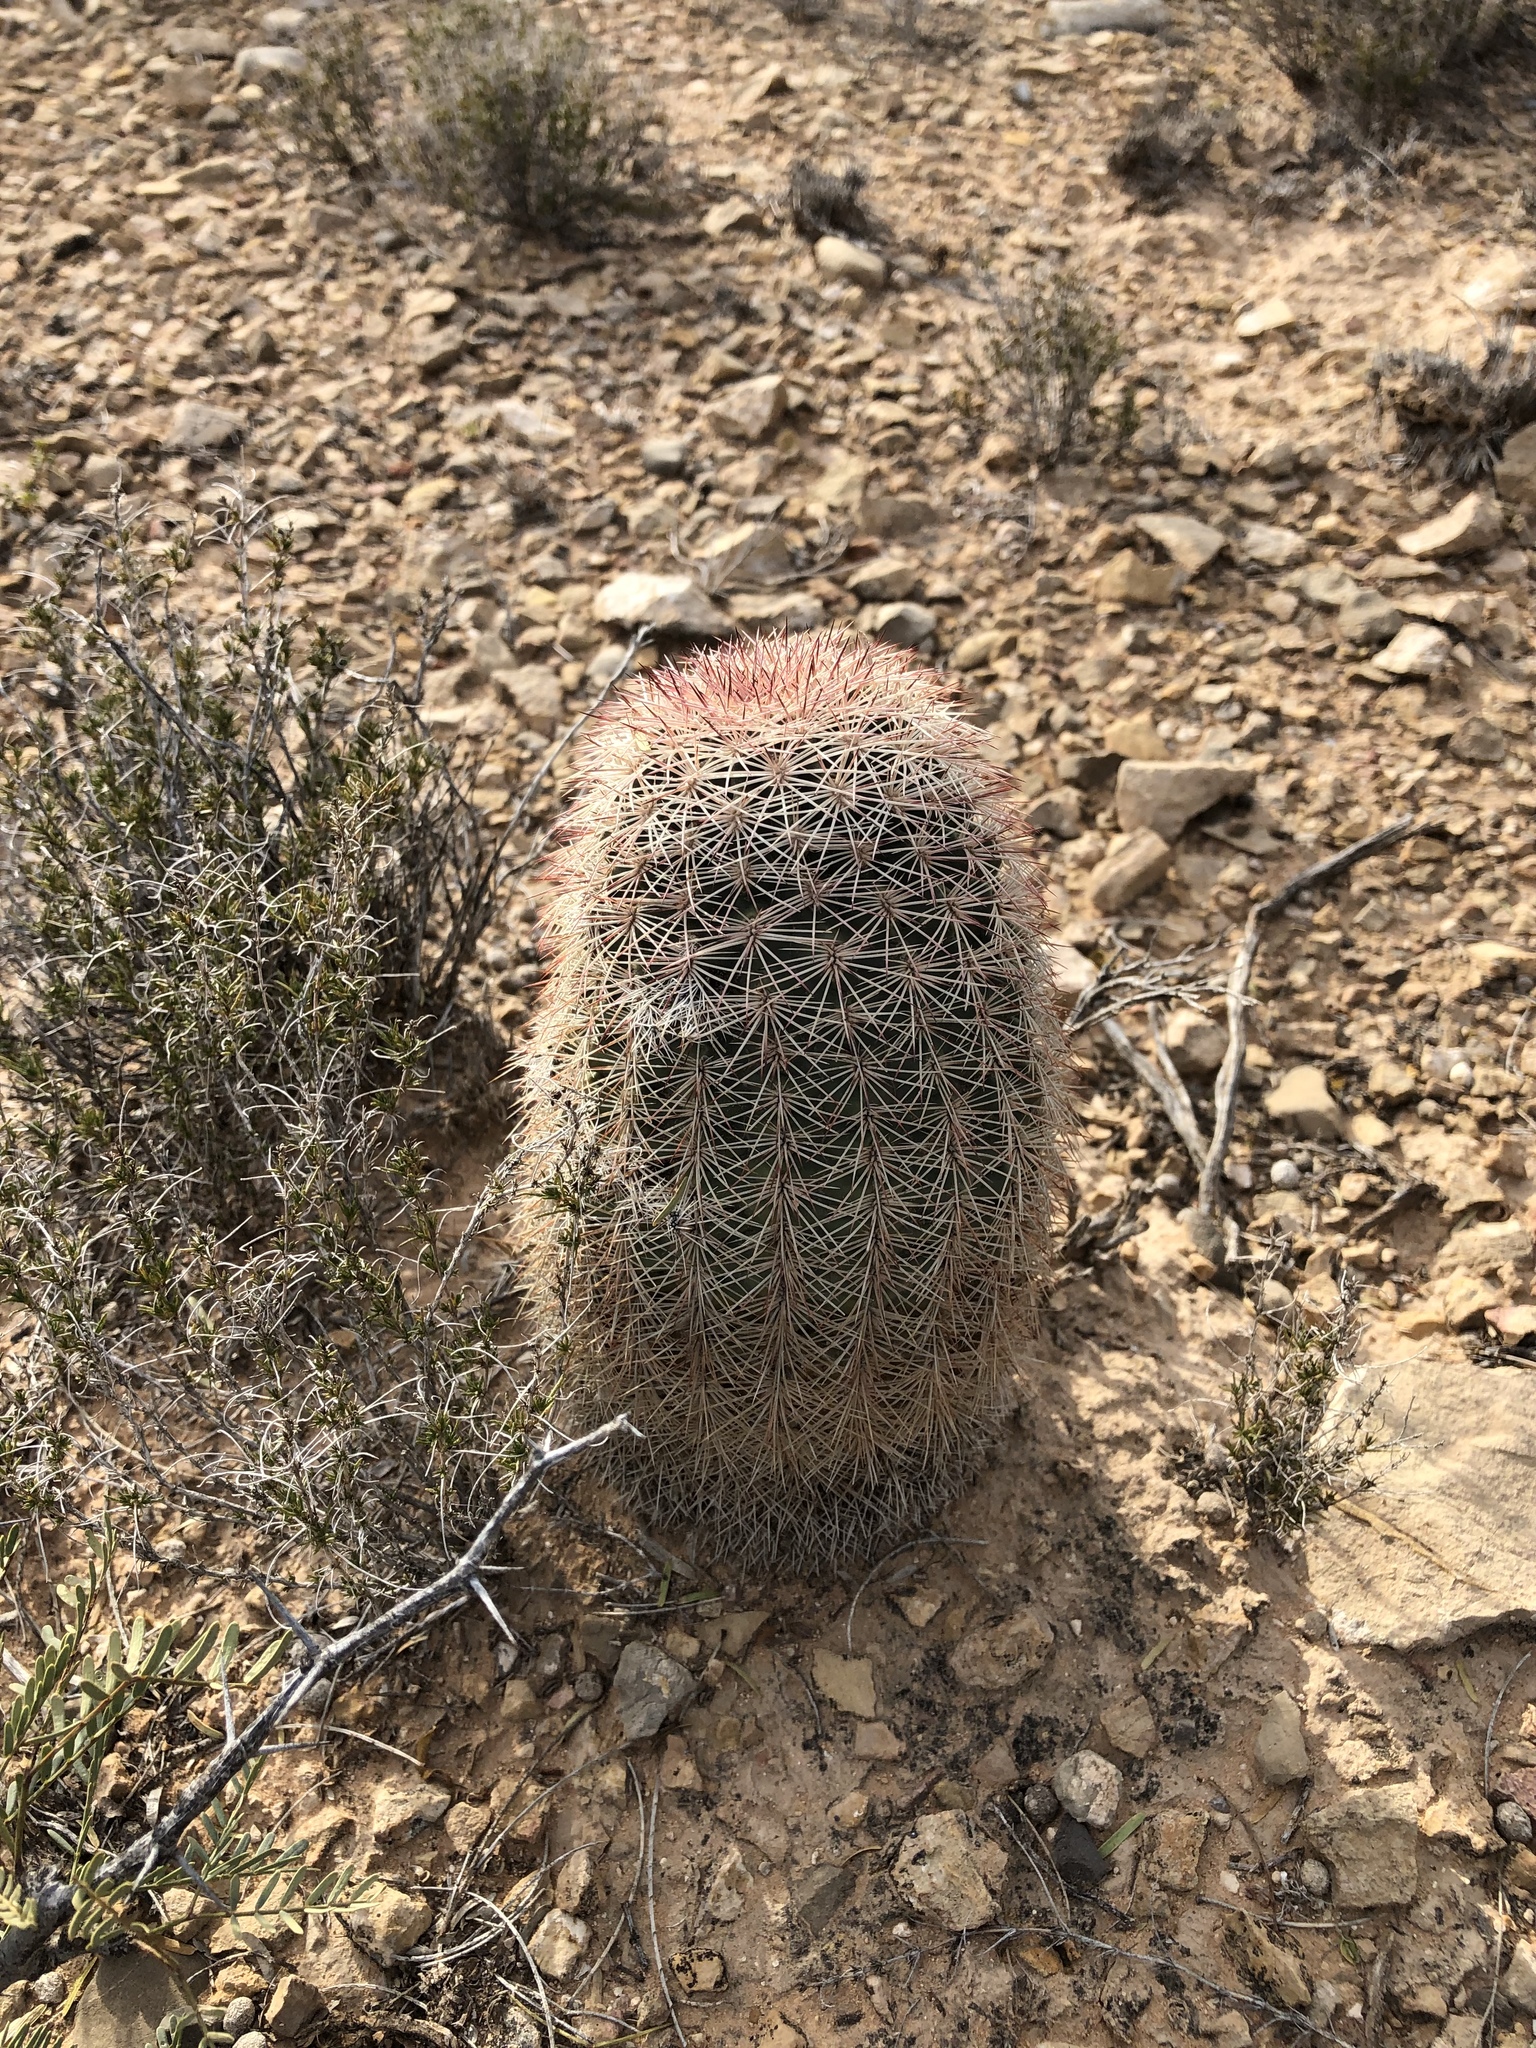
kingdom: Plantae
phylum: Tracheophyta
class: Magnoliopsida
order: Caryophyllales
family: Cactaceae
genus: Echinocereus
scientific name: Echinocereus dasyacanthus
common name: Spiny hedgehog cactus
